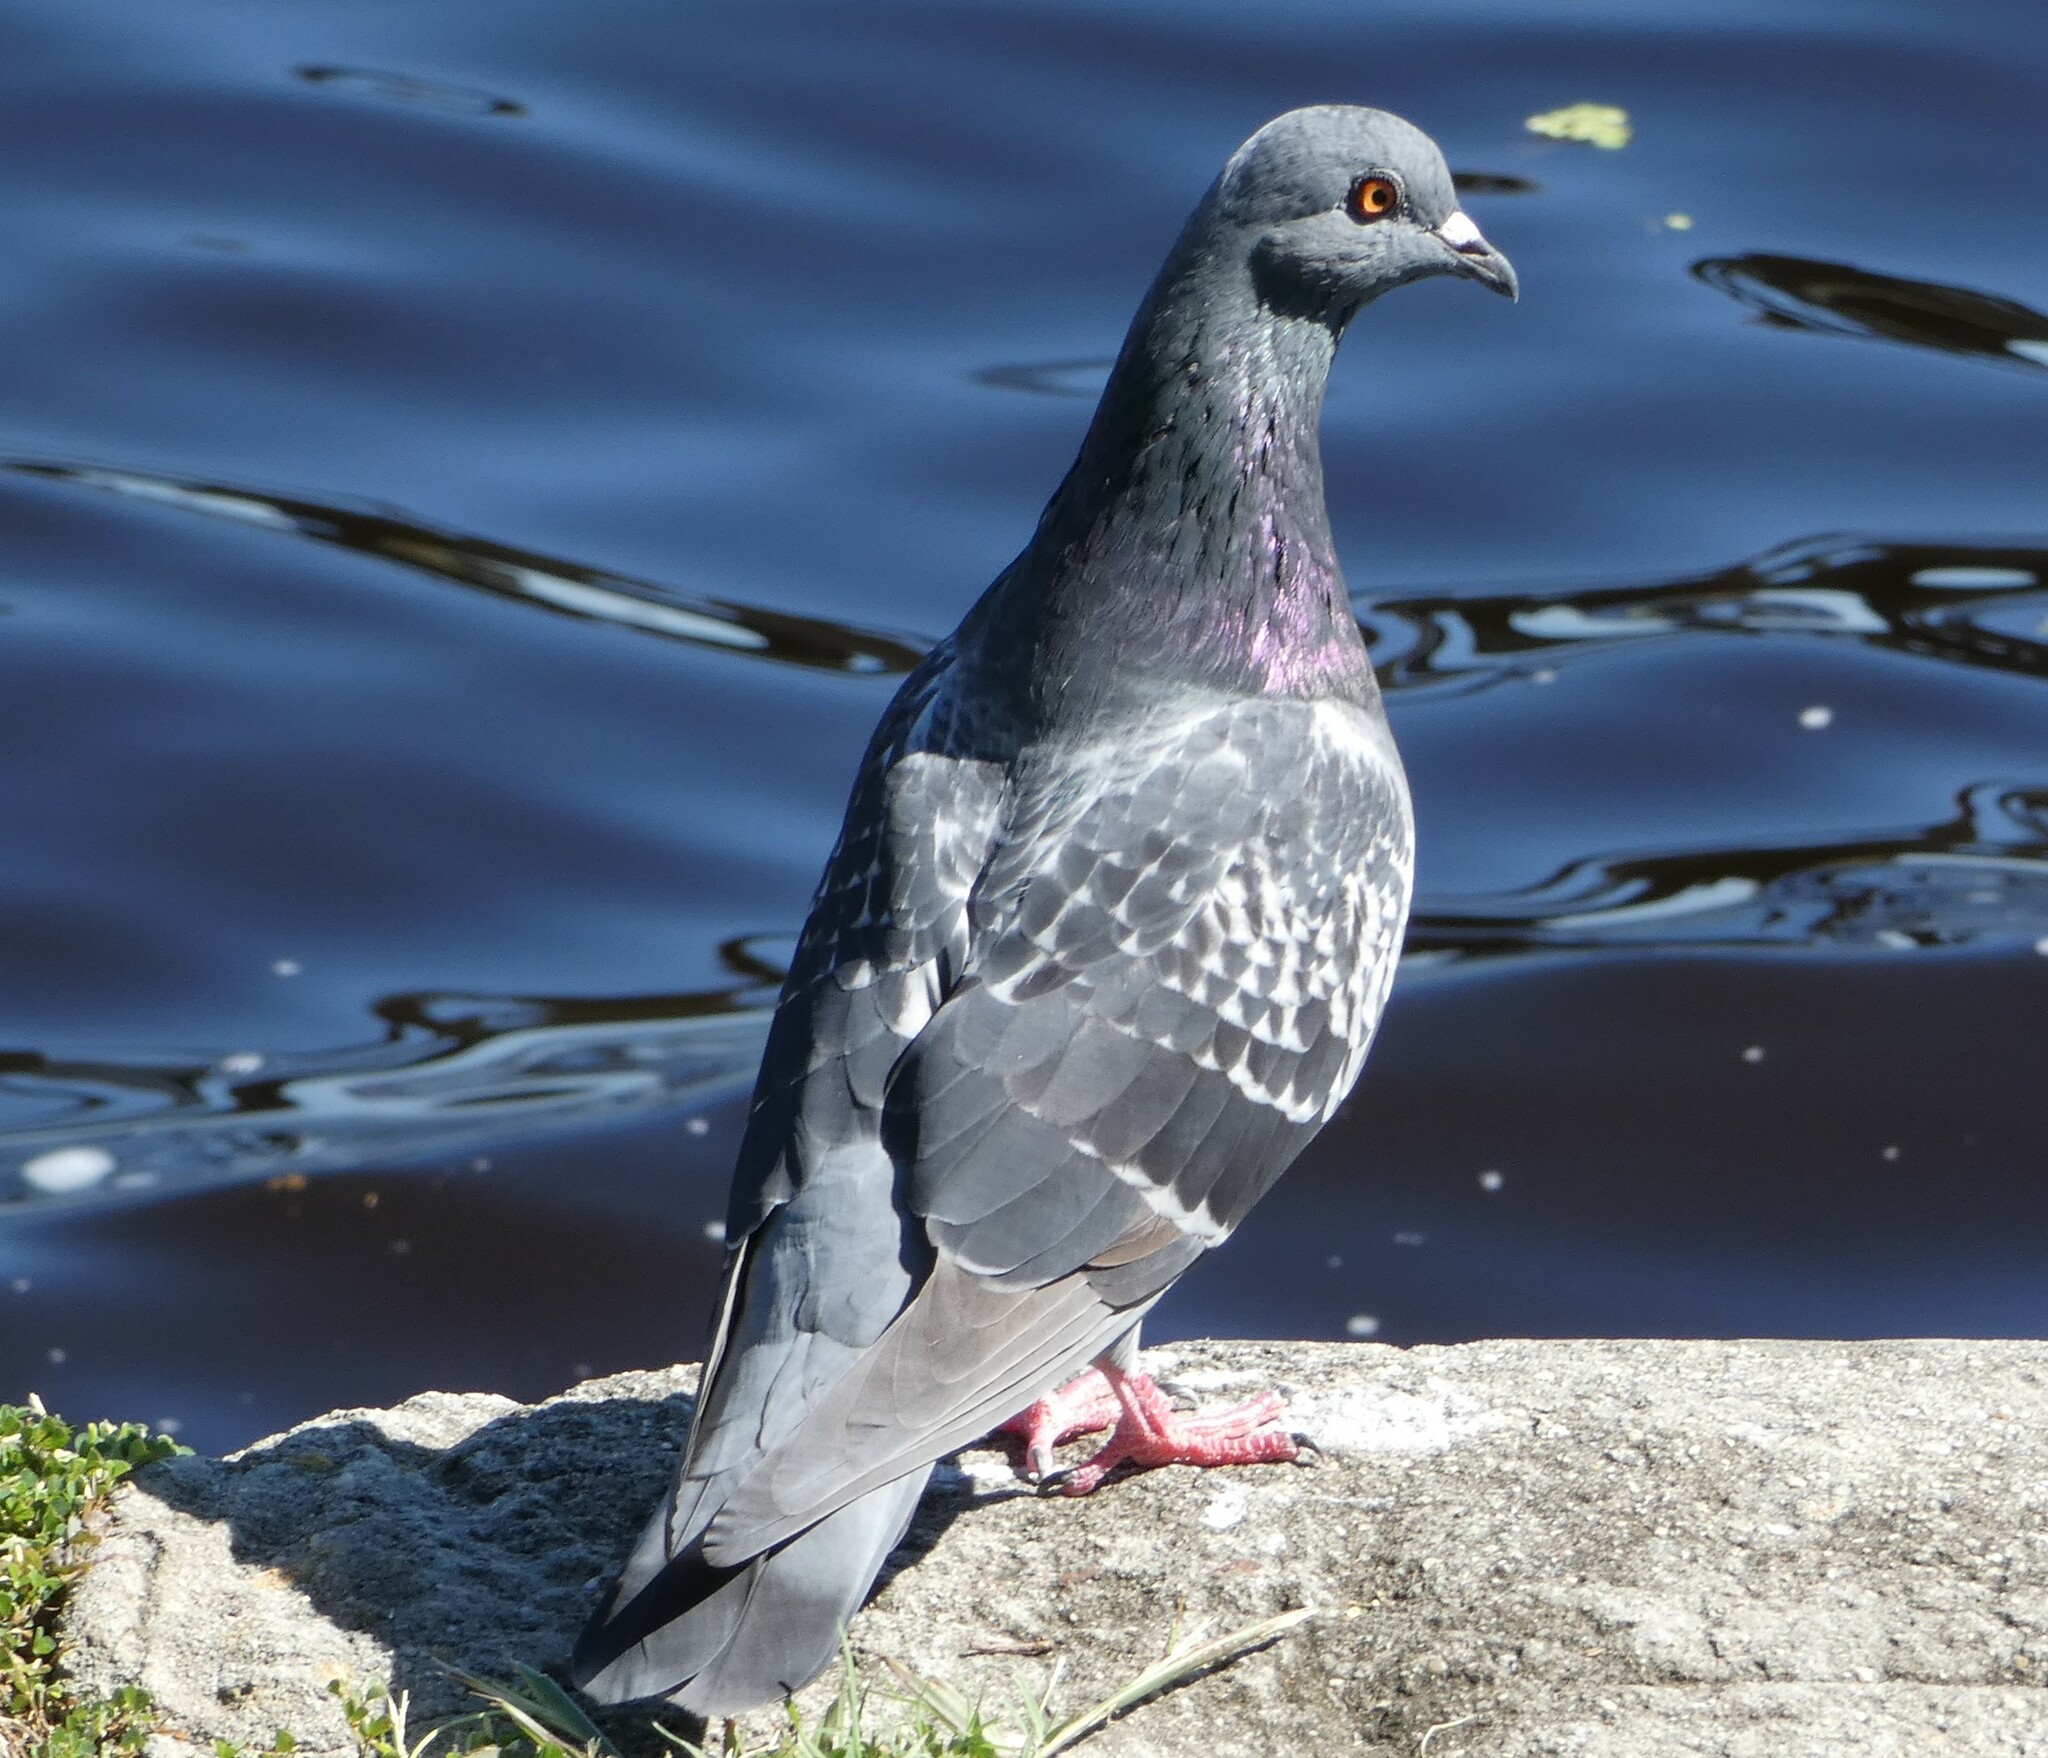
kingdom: Animalia
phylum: Chordata
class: Aves
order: Columbiformes
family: Columbidae
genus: Columba
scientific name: Columba livia
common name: Rock pigeon
